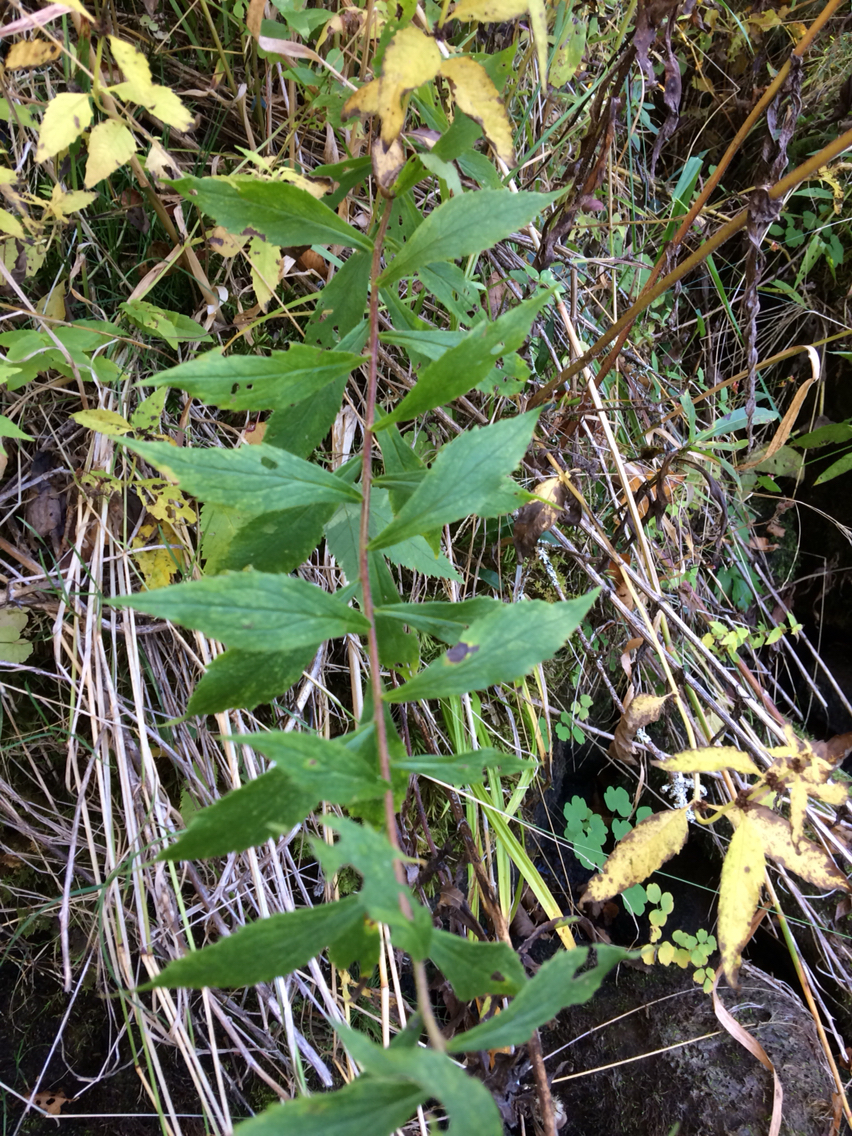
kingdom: Plantae
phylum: Tracheophyta
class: Magnoliopsida
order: Asterales
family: Asteraceae
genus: Solidago
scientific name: Solidago rugosa
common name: Rough-stemmed goldenrod
